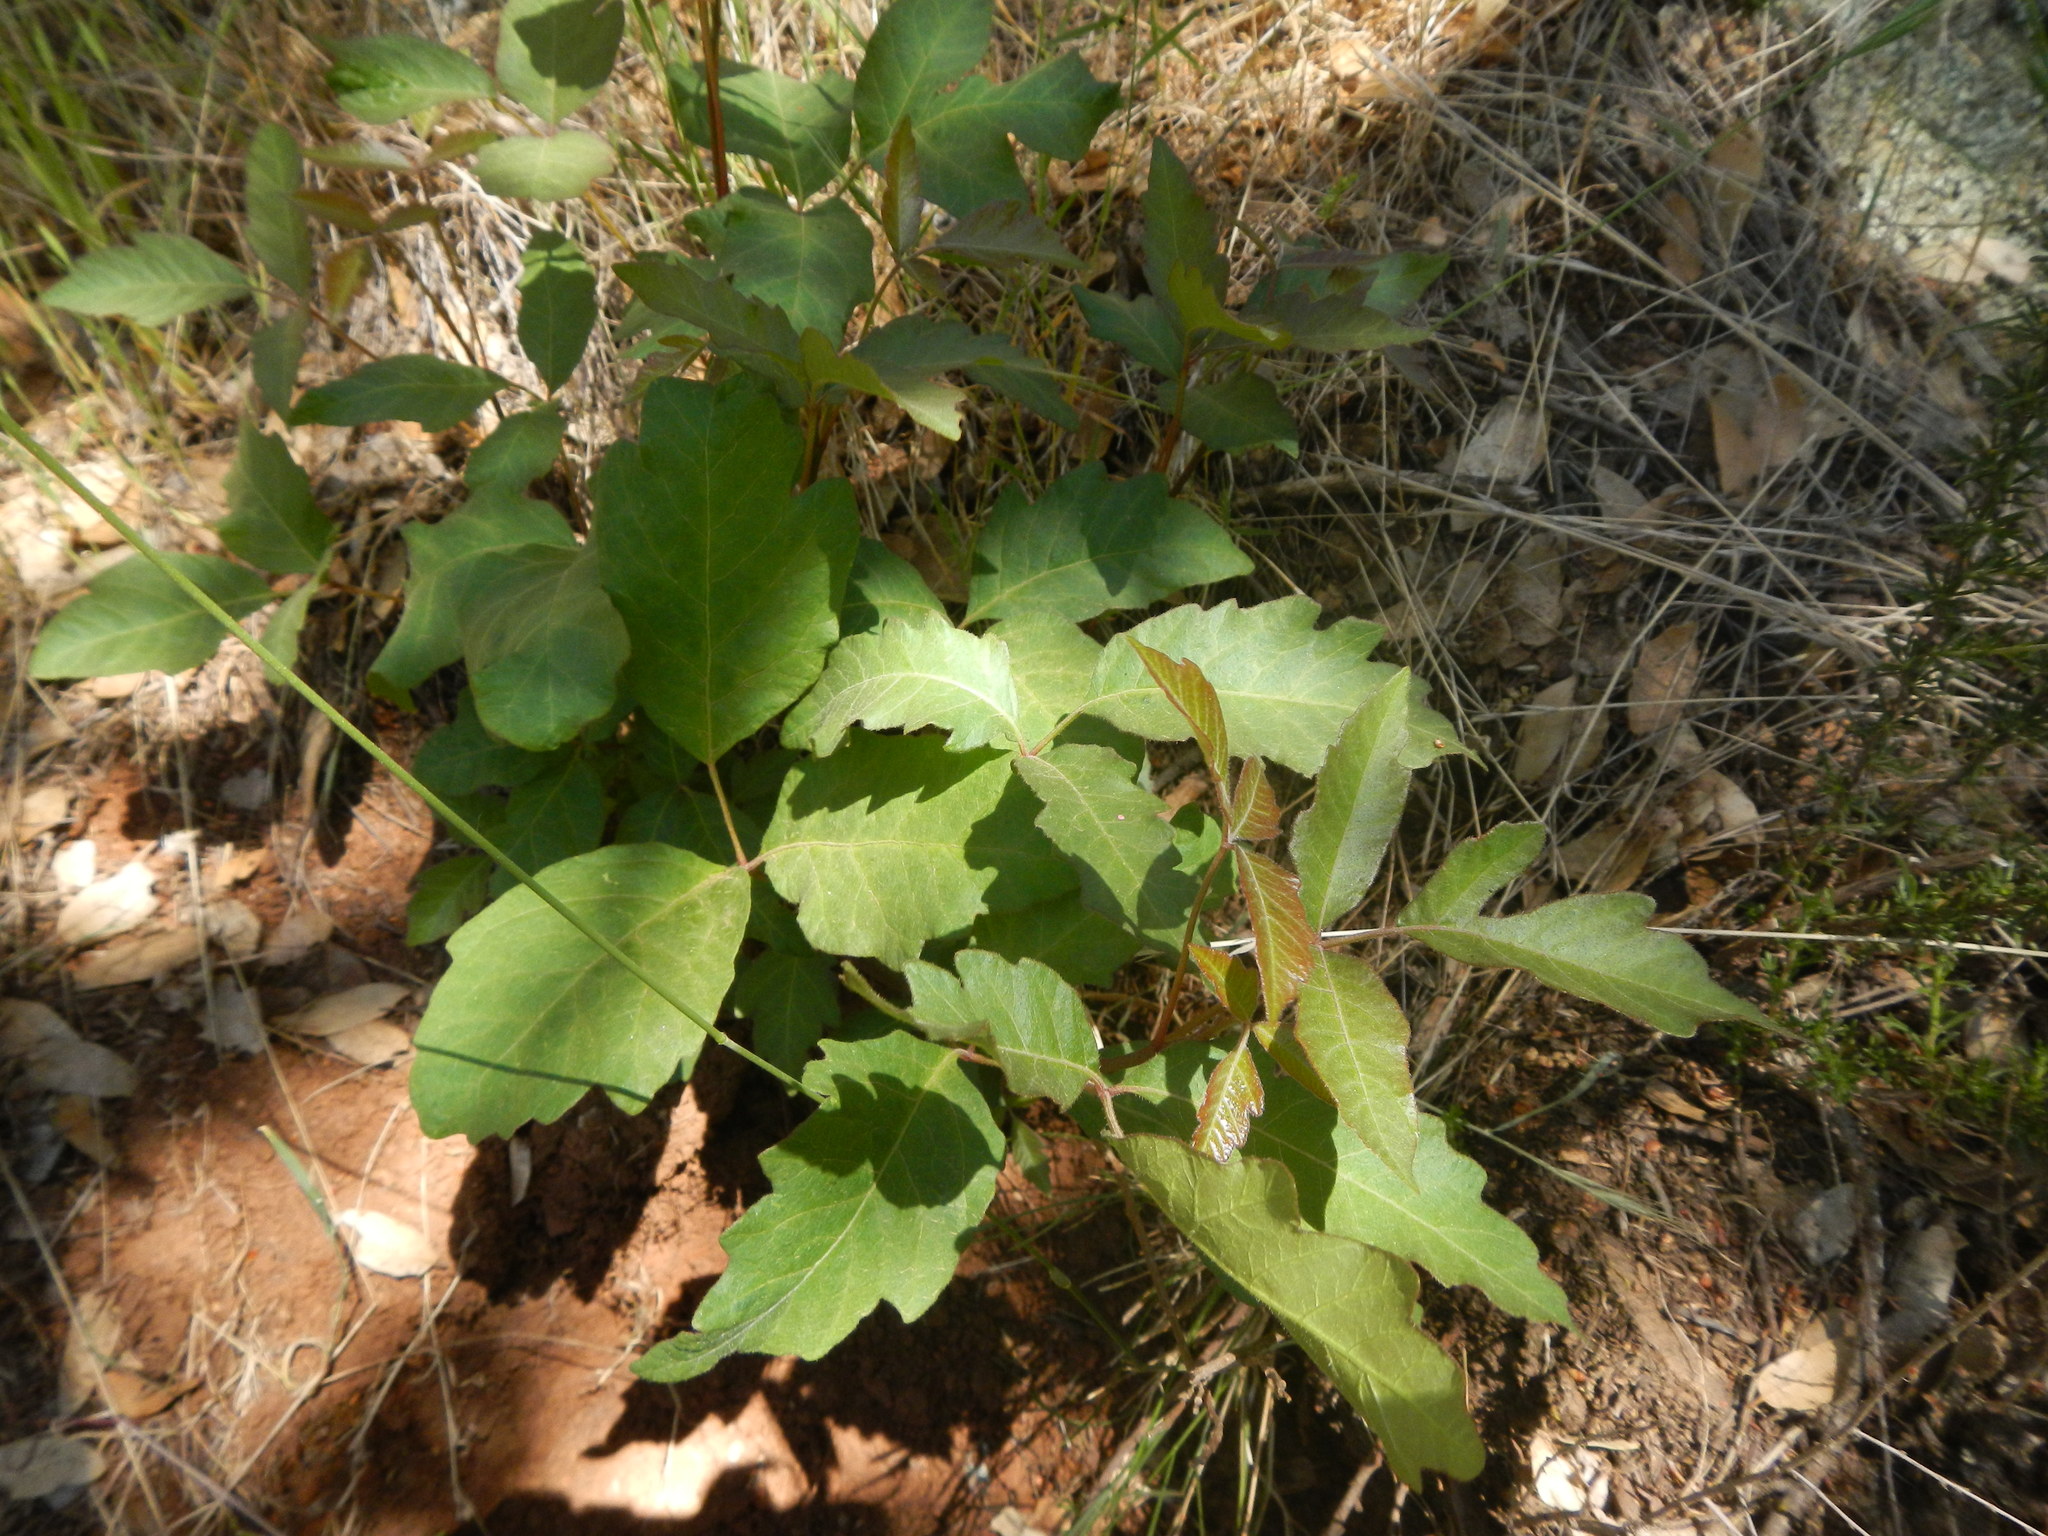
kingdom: Plantae
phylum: Tracheophyta
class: Magnoliopsida
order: Sapindales
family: Anacardiaceae
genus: Toxicodendron
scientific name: Toxicodendron diversilobum
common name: Pacific poison-oak
